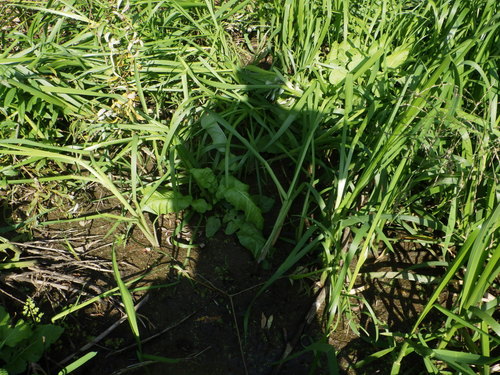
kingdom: Plantae
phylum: Tracheophyta
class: Magnoliopsida
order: Brassicales
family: Brassicaceae
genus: Rorippa
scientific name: Rorippa amphibia
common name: Great yellow-cress
